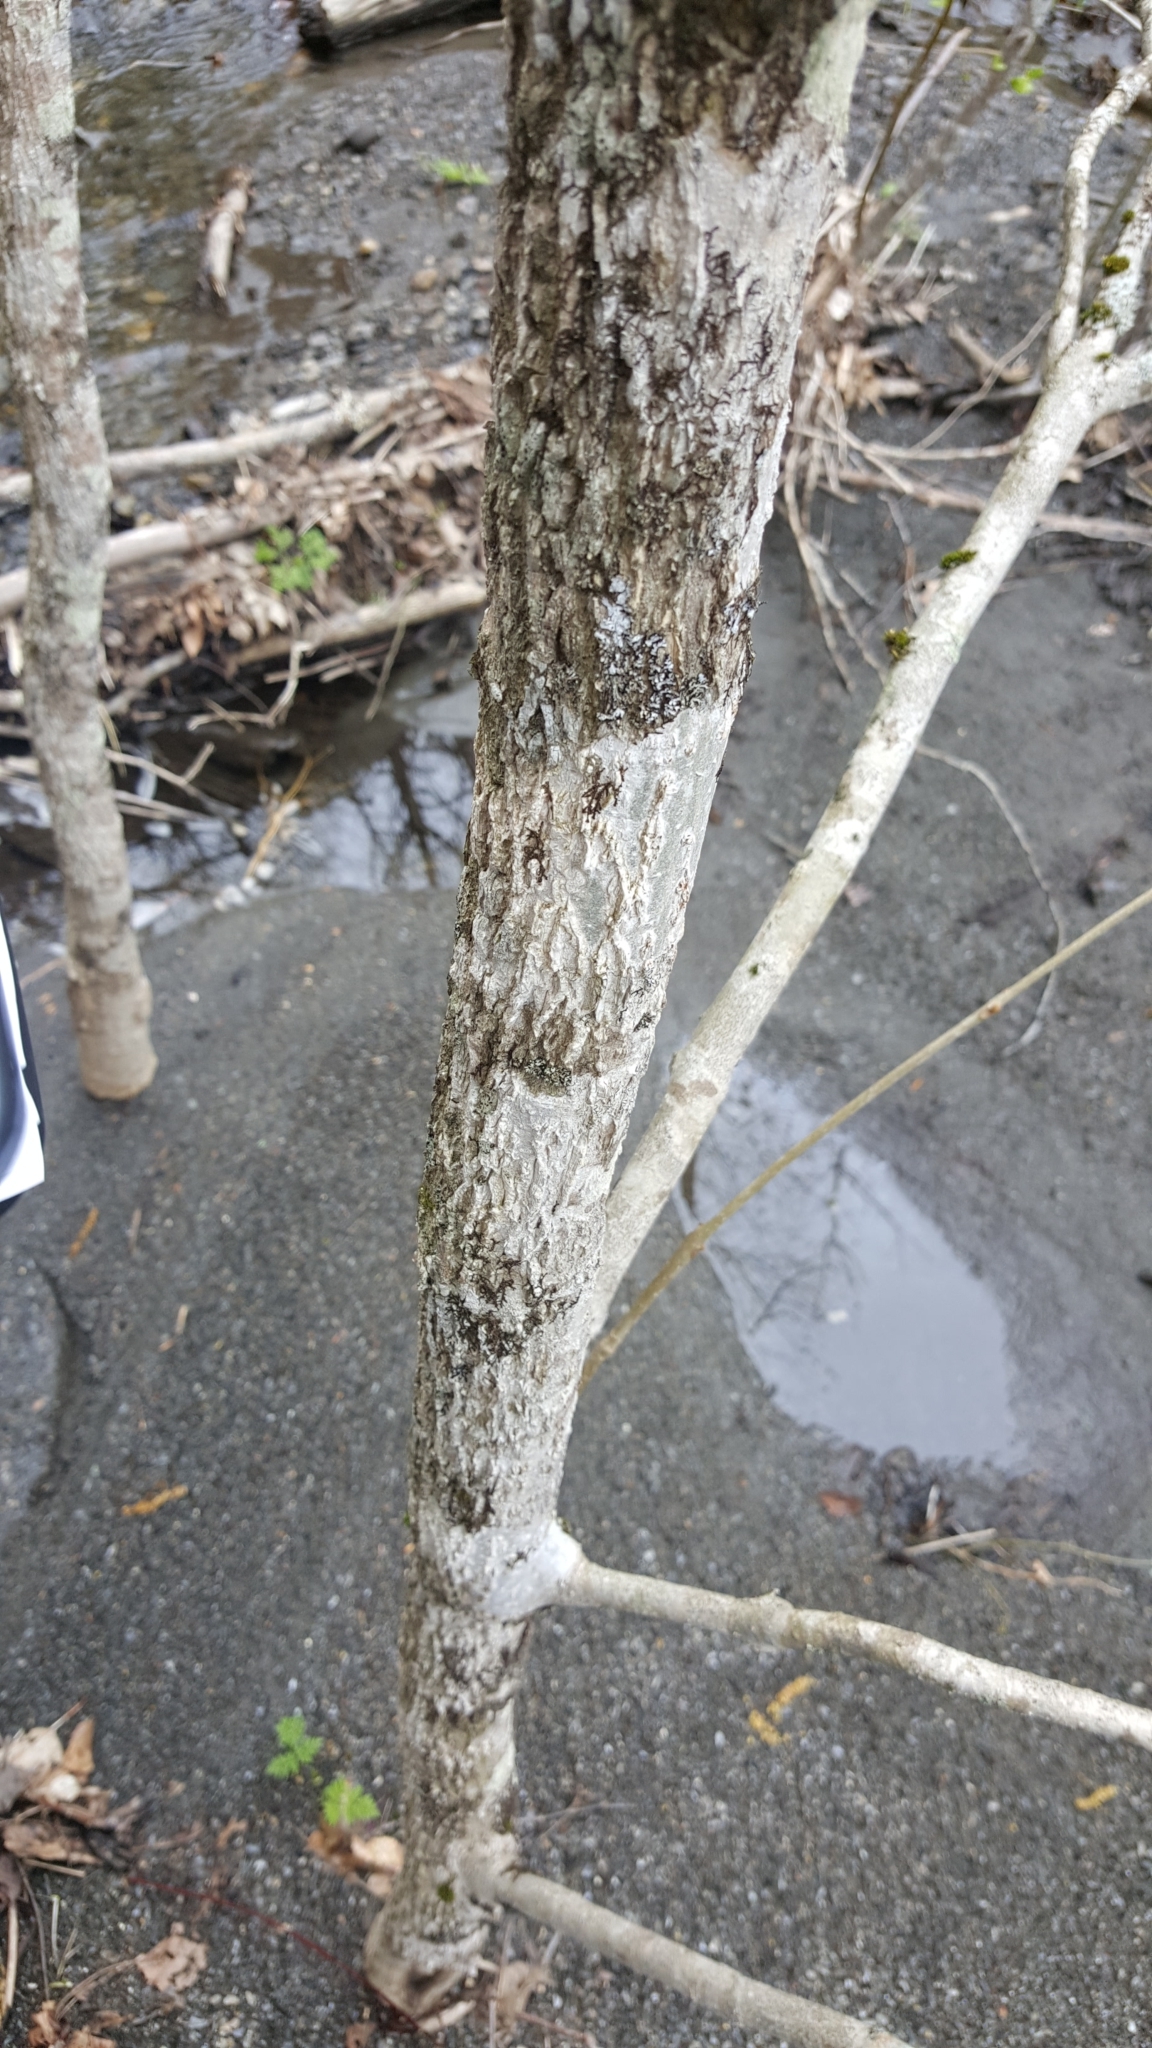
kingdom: Plantae
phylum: Tracheophyta
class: Magnoliopsida
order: Lamiales
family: Oleaceae
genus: Fraxinus
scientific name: Fraxinus nigra
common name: Black ash
